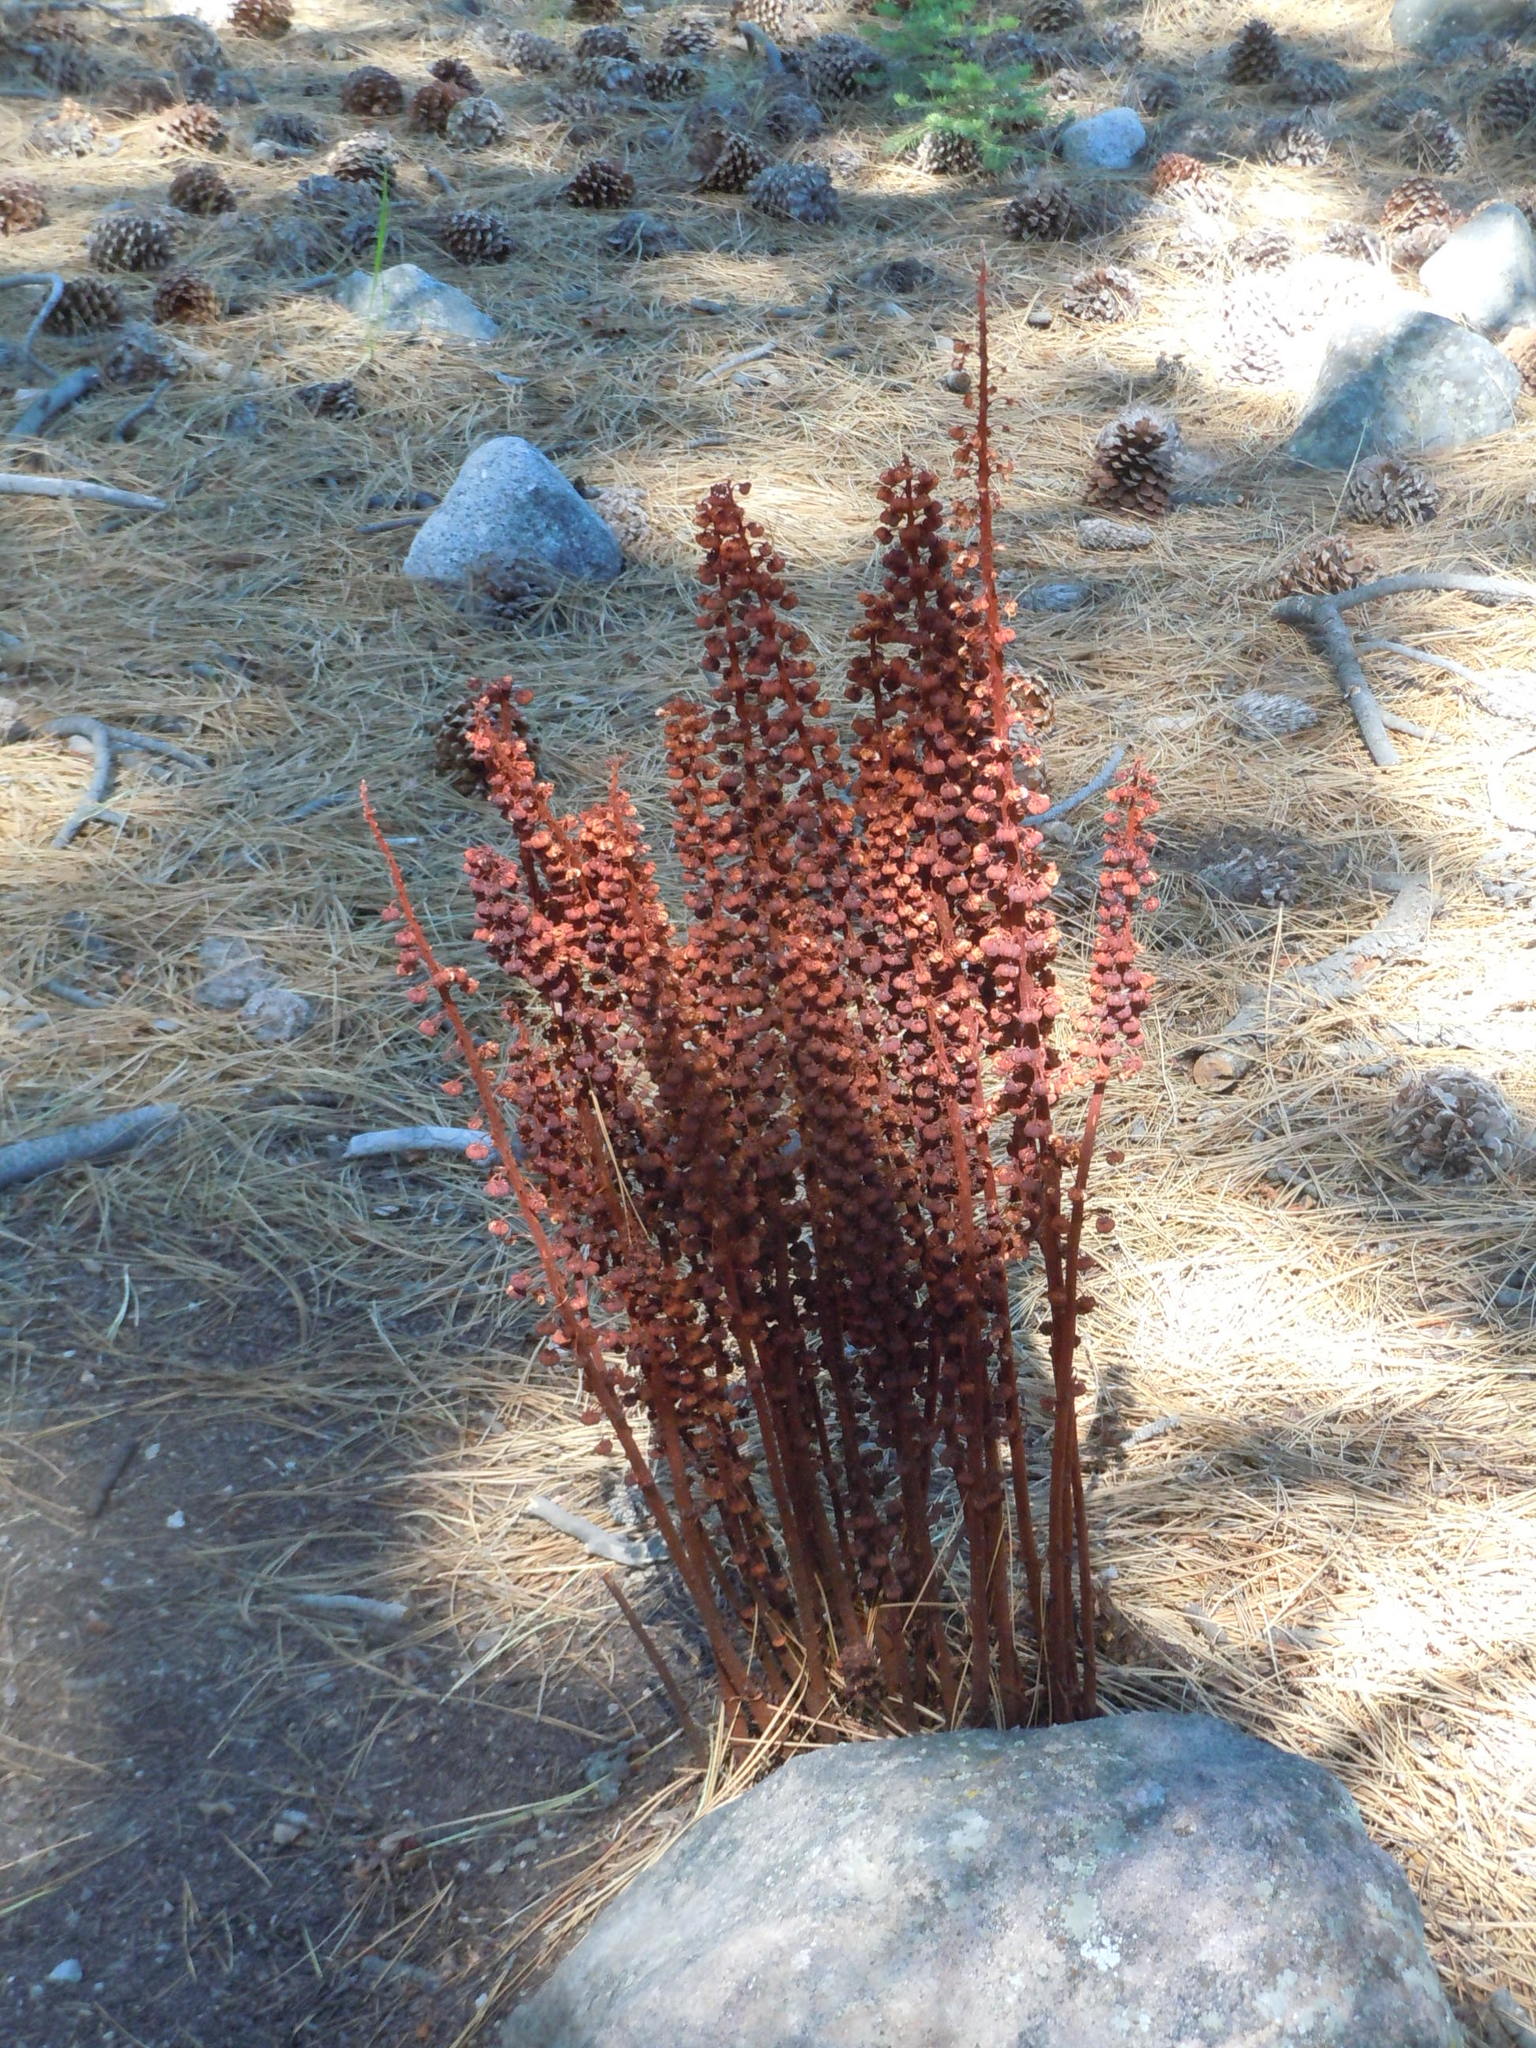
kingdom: Plantae
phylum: Tracheophyta
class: Magnoliopsida
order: Ericales
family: Ericaceae
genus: Pterospora
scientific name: Pterospora andromedea
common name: Giant bird's-nest
